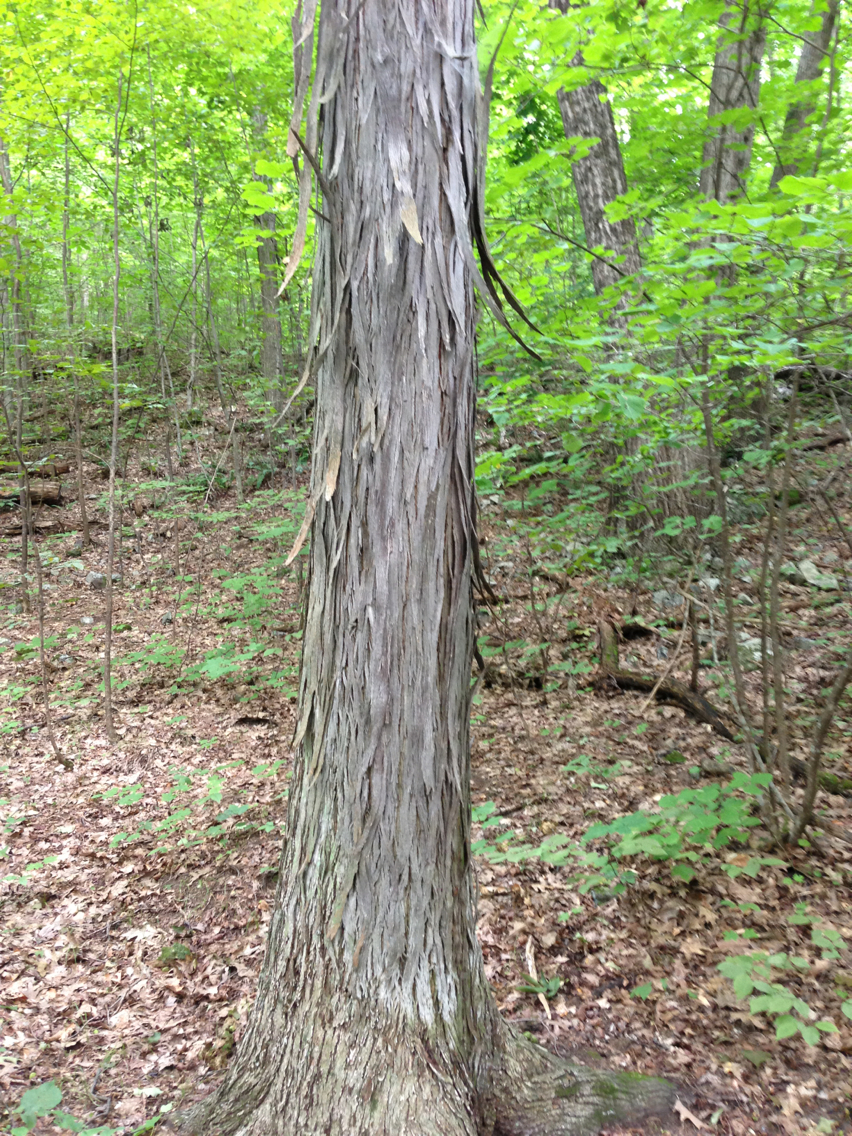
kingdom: Plantae
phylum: Tracheophyta
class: Magnoliopsida
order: Fagales
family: Juglandaceae
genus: Carya
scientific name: Carya ovata
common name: Shagbark hickory
